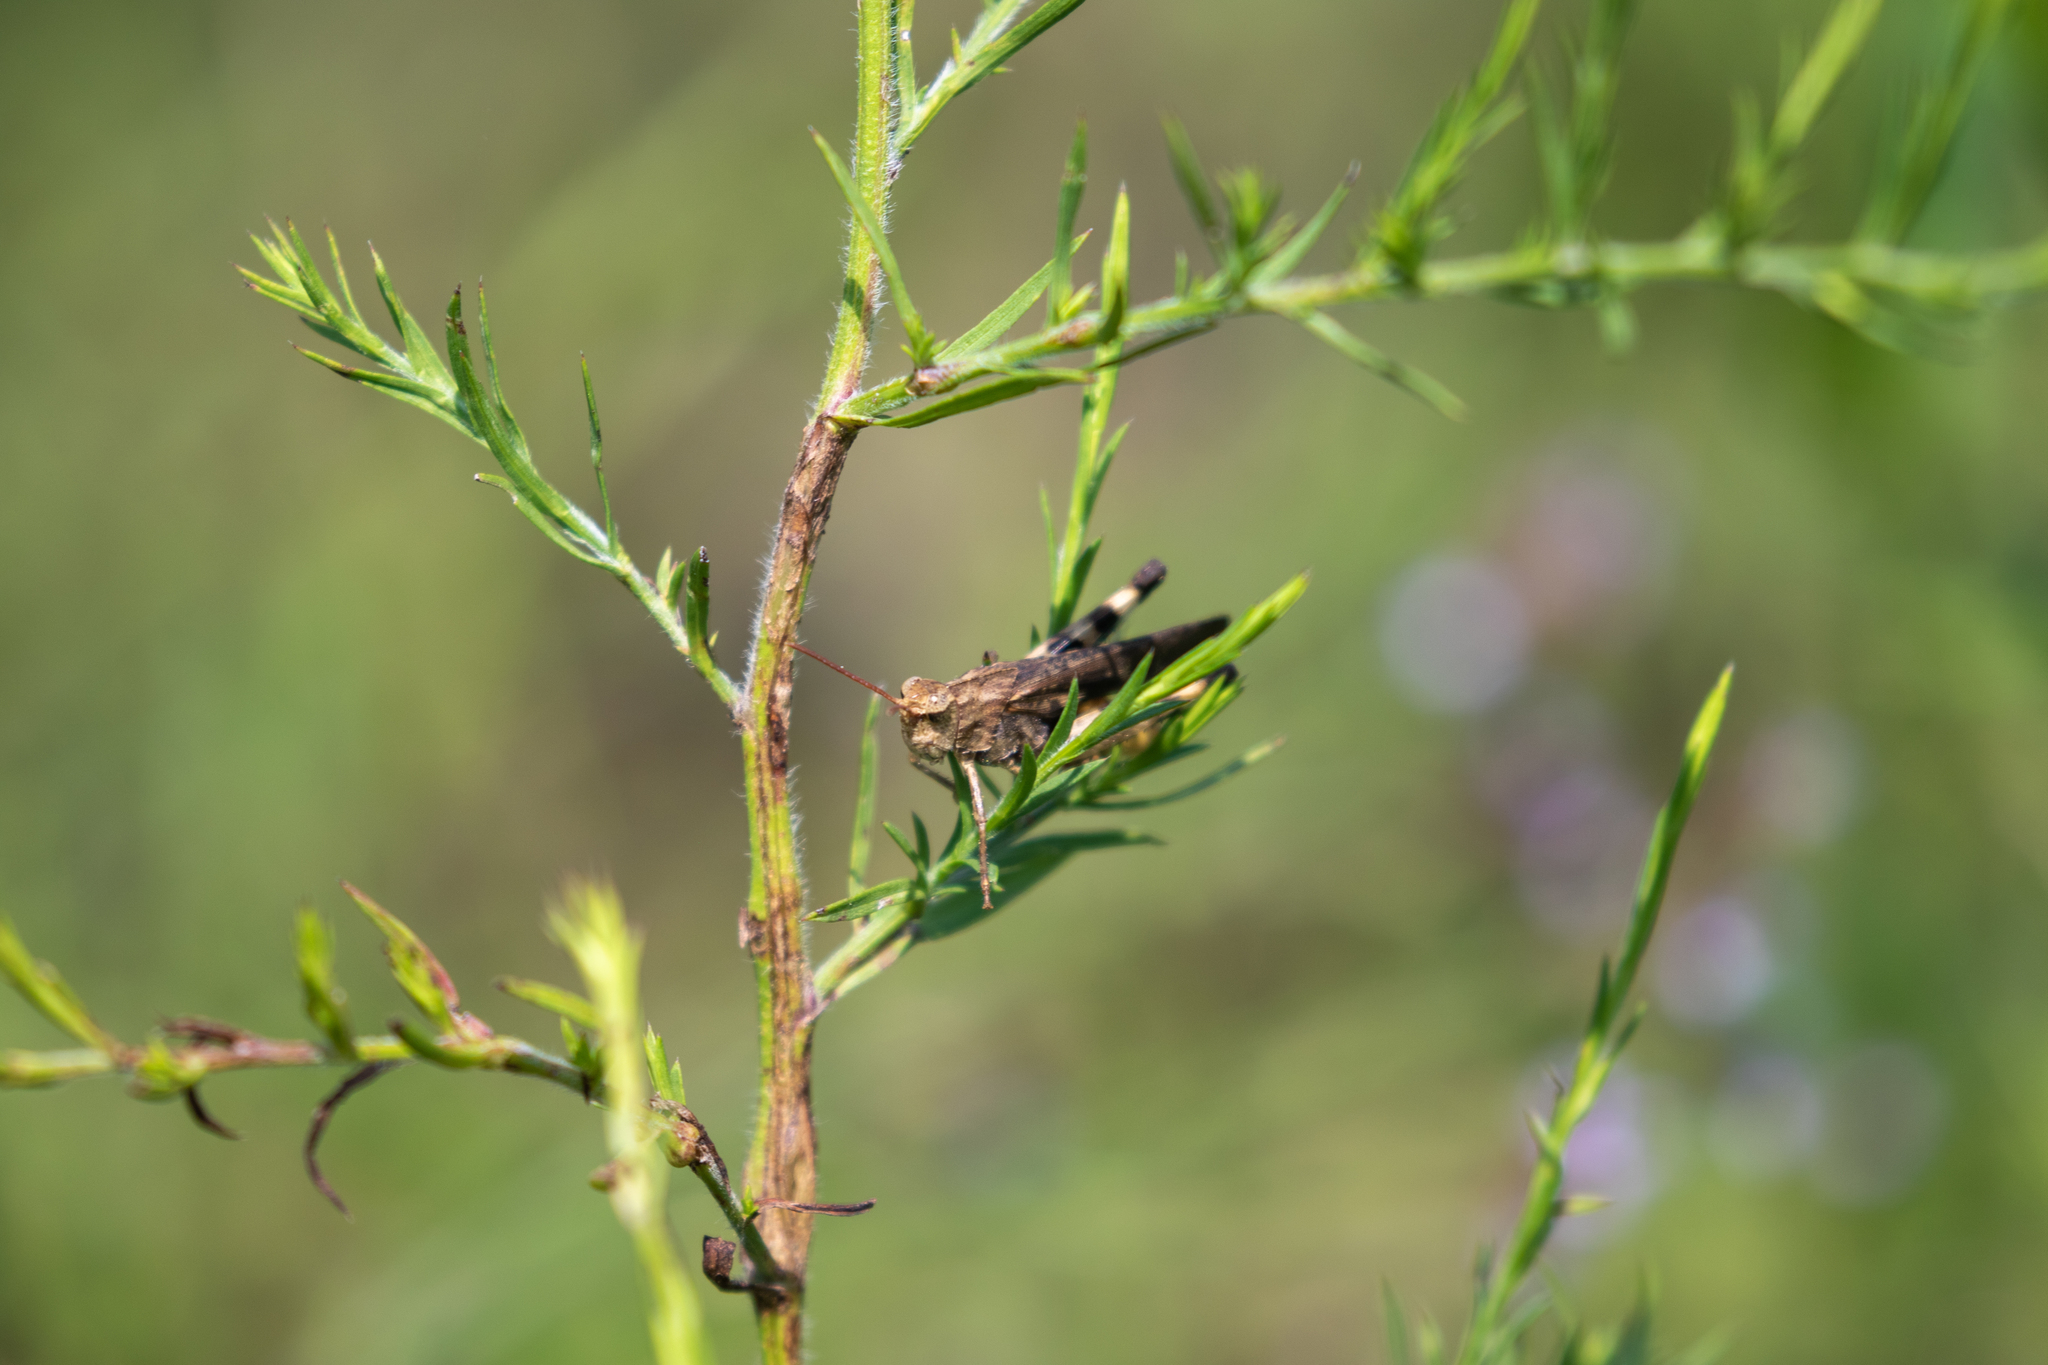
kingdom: Animalia
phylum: Arthropoda
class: Insecta
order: Orthoptera
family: Acrididae
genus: Chortophaga
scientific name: Chortophaga viridifasciata
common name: Green-striped grasshopper
